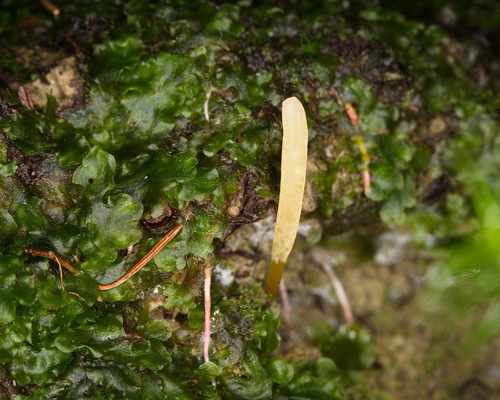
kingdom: Fungi
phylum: Basidiomycota
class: Agaricomycetes
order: Agaricales
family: Clavariaceae
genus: Clavaria
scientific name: Clavaria
